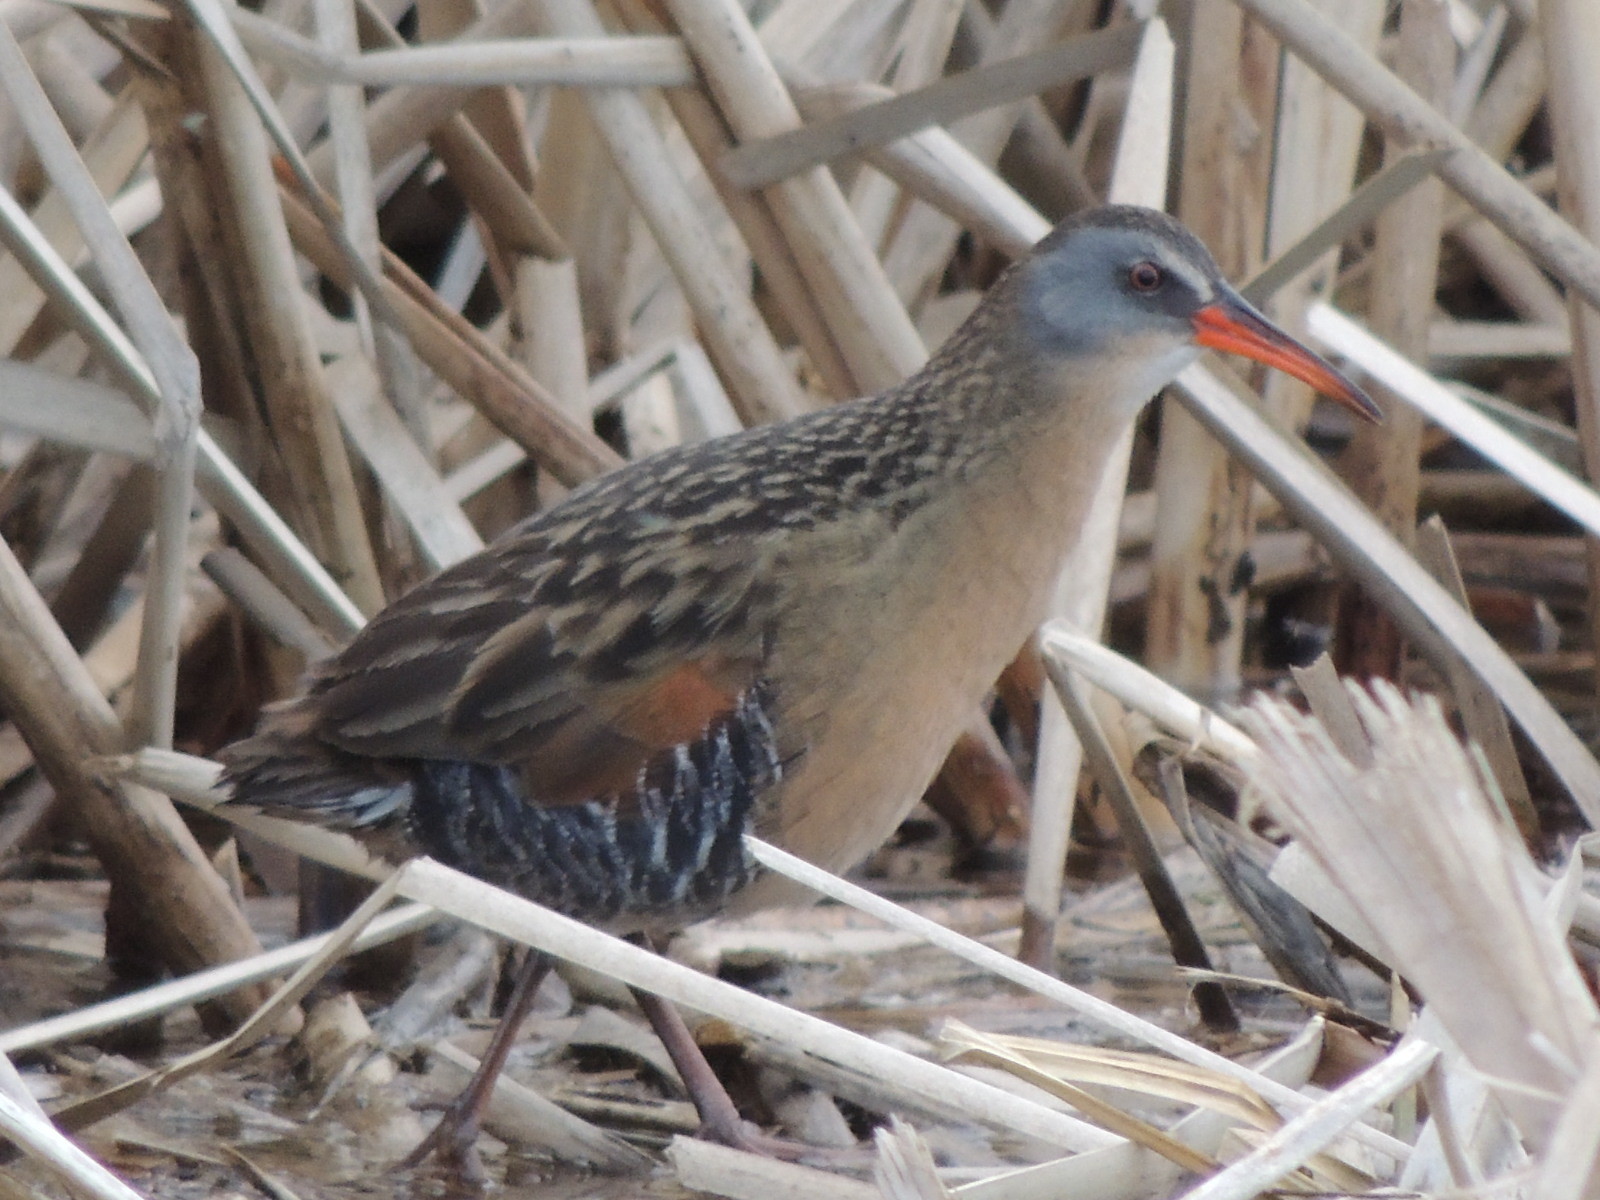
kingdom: Animalia
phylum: Chordata
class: Aves
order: Gruiformes
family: Rallidae
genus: Rallus
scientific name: Rallus limicola
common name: Virginia rail
